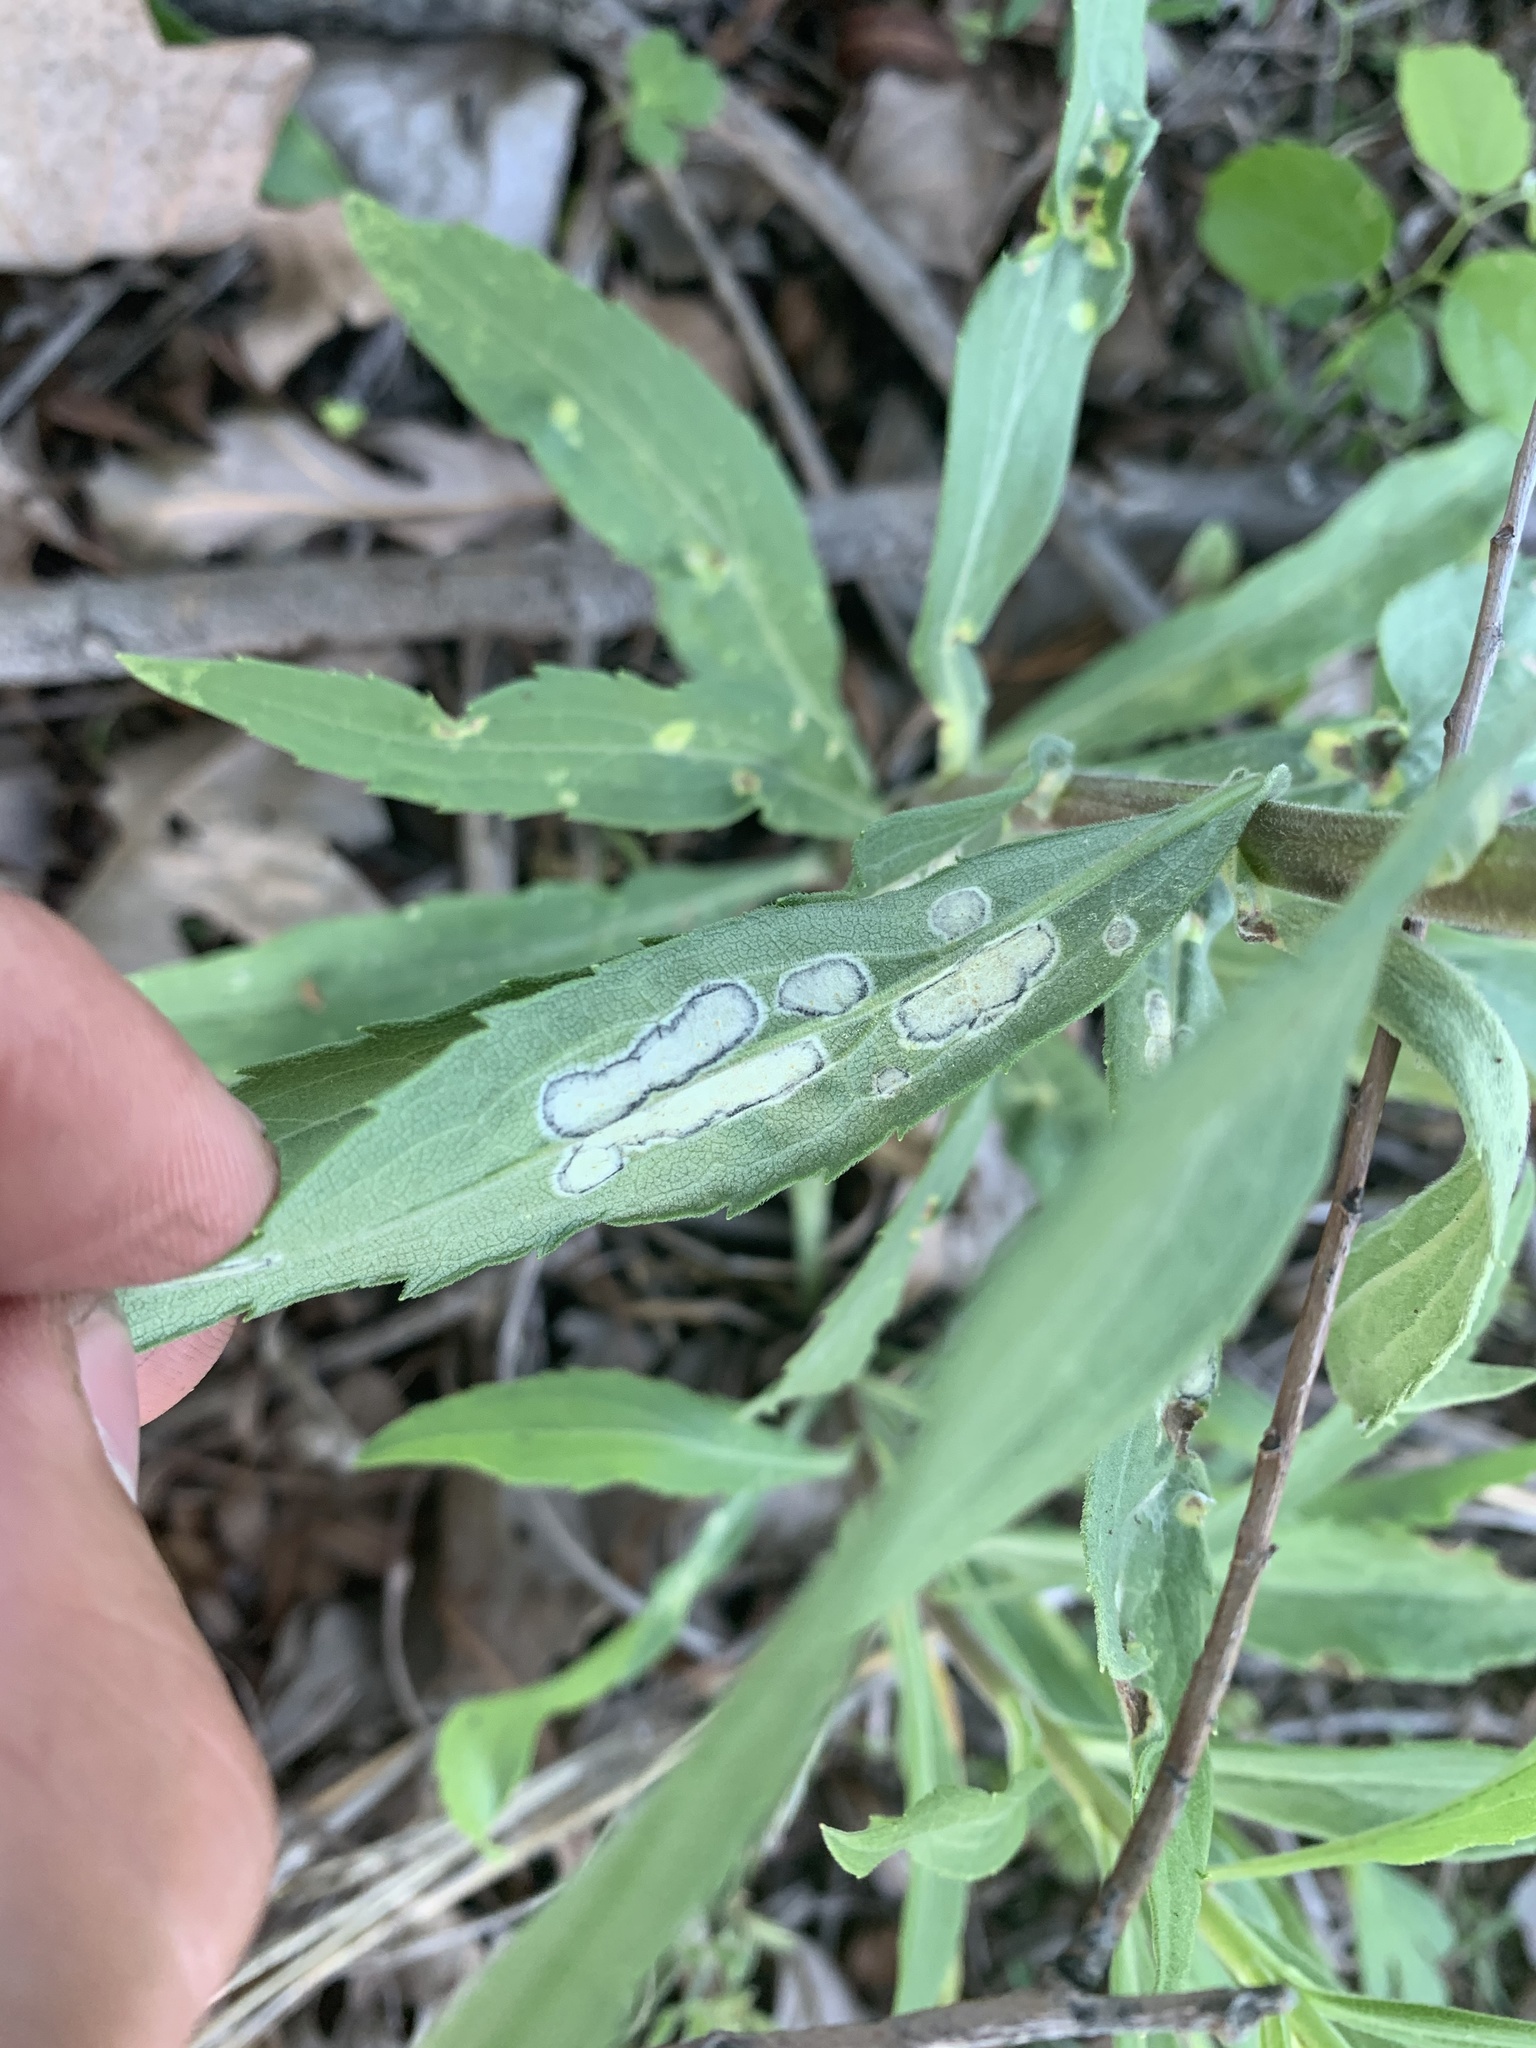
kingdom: Animalia
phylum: Arthropoda
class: Insecta
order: Diptera
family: Cecidomyiidae
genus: Asteromyia
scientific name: Asteromyia carbonifera
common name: Carbonifera goldenrod gall midge
